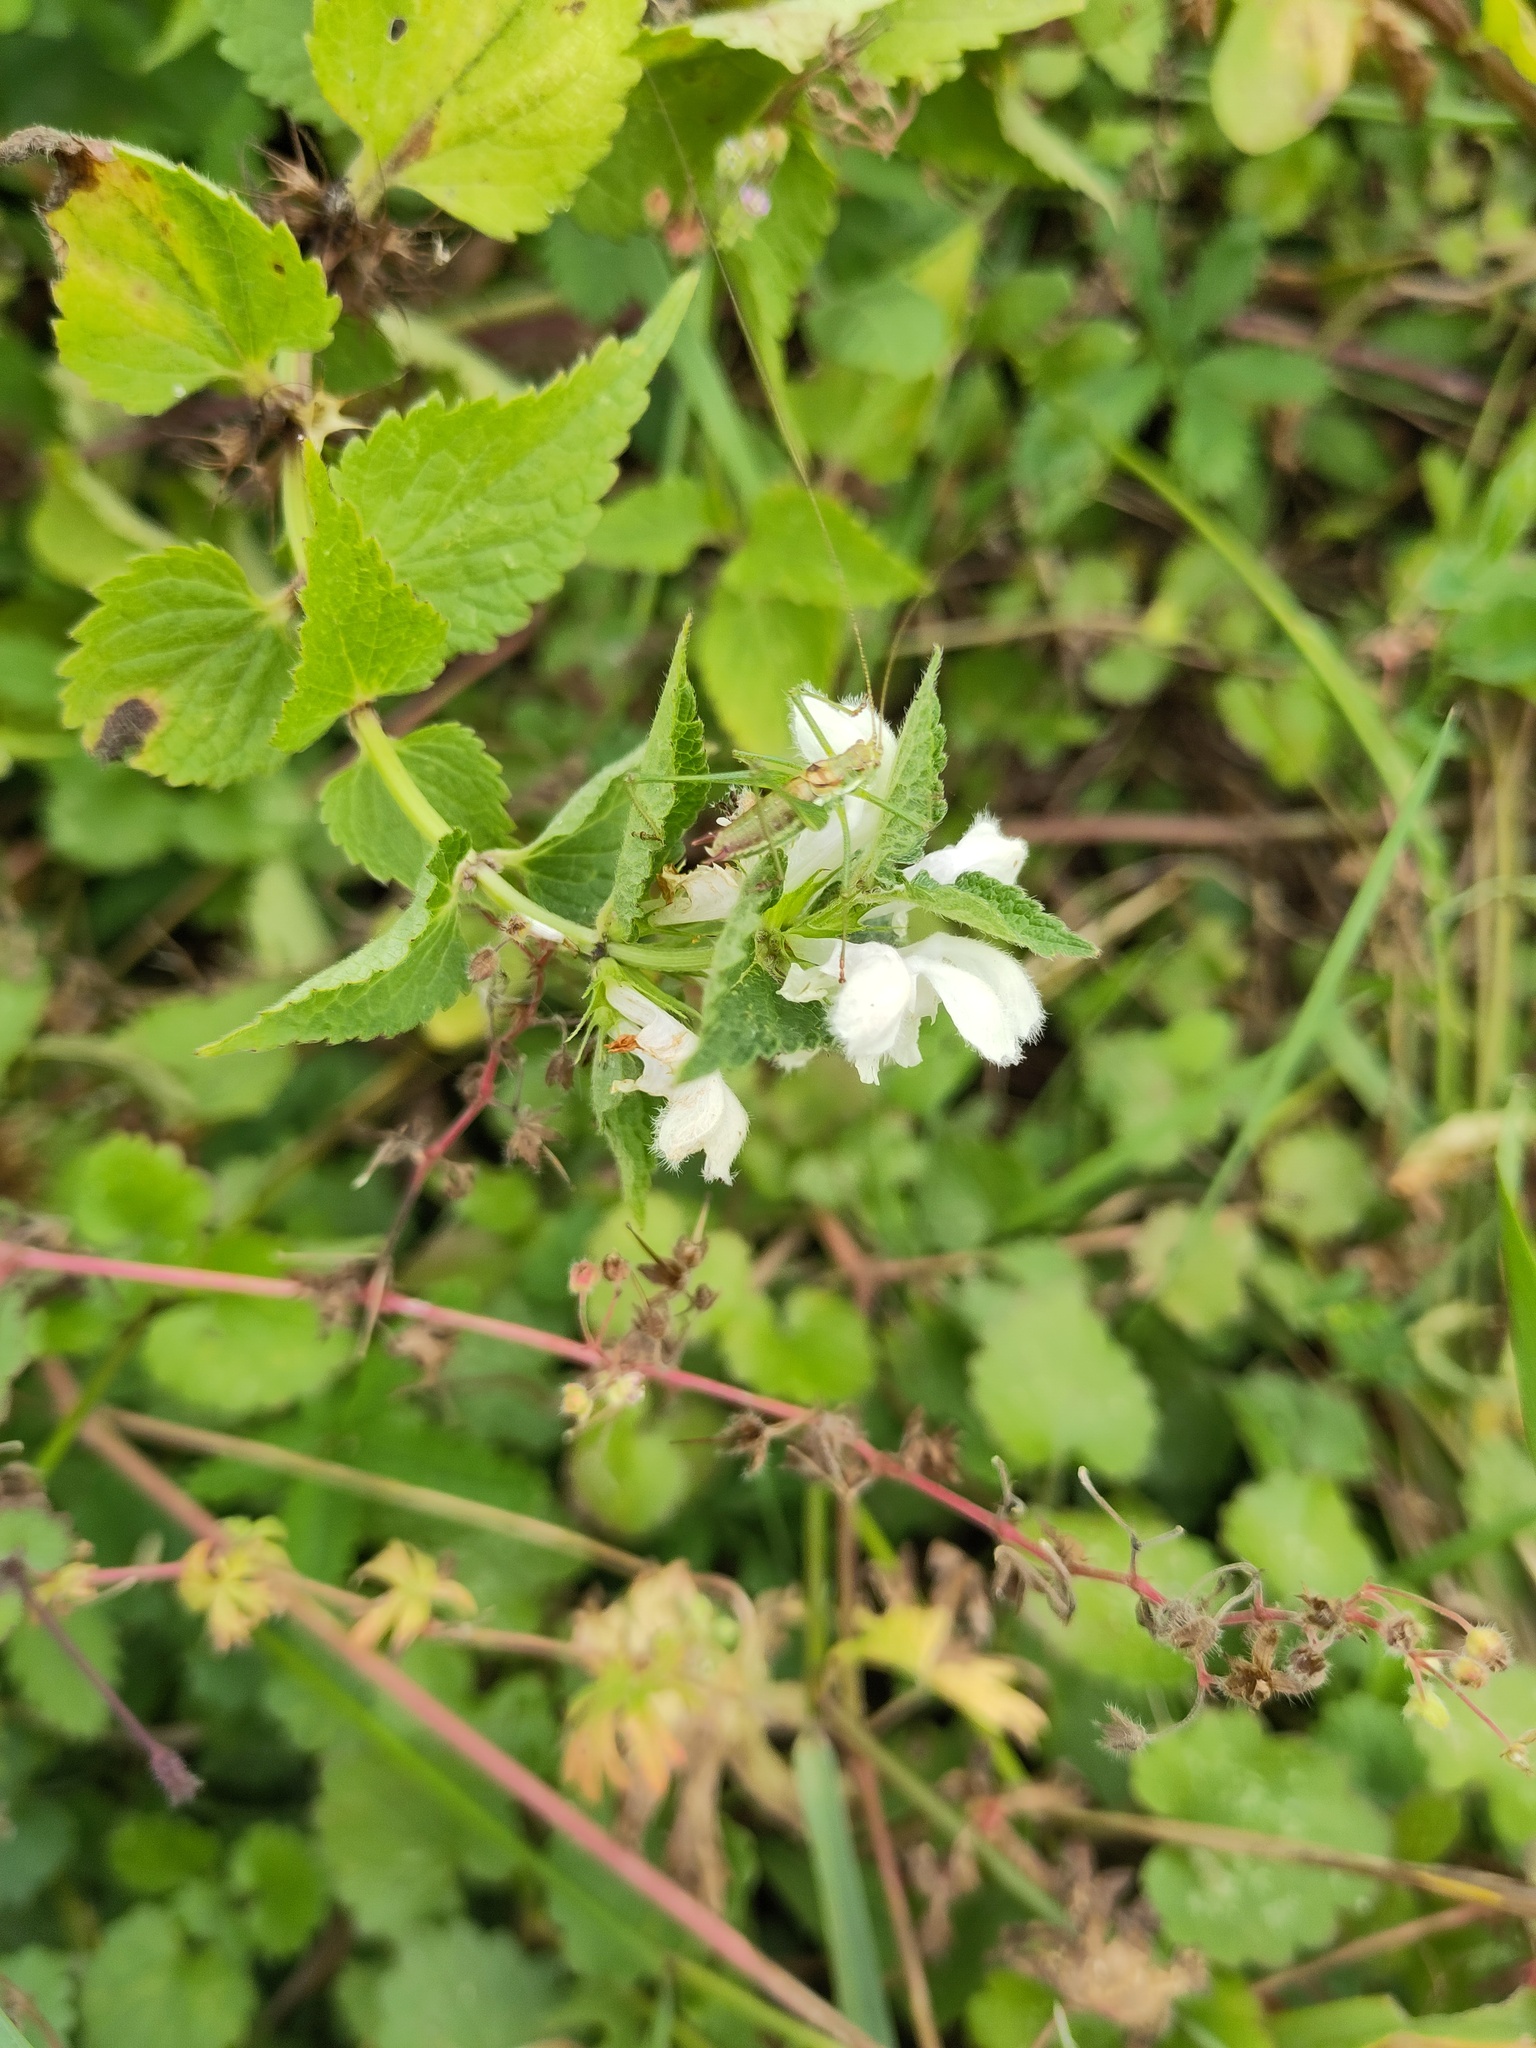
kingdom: Animalia
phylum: Arthropoda
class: Insecta
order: Orthoptera
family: Tettigoniidae
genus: Leptophyes
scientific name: Leptophyes albovittata
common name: Striped bush-cricket
